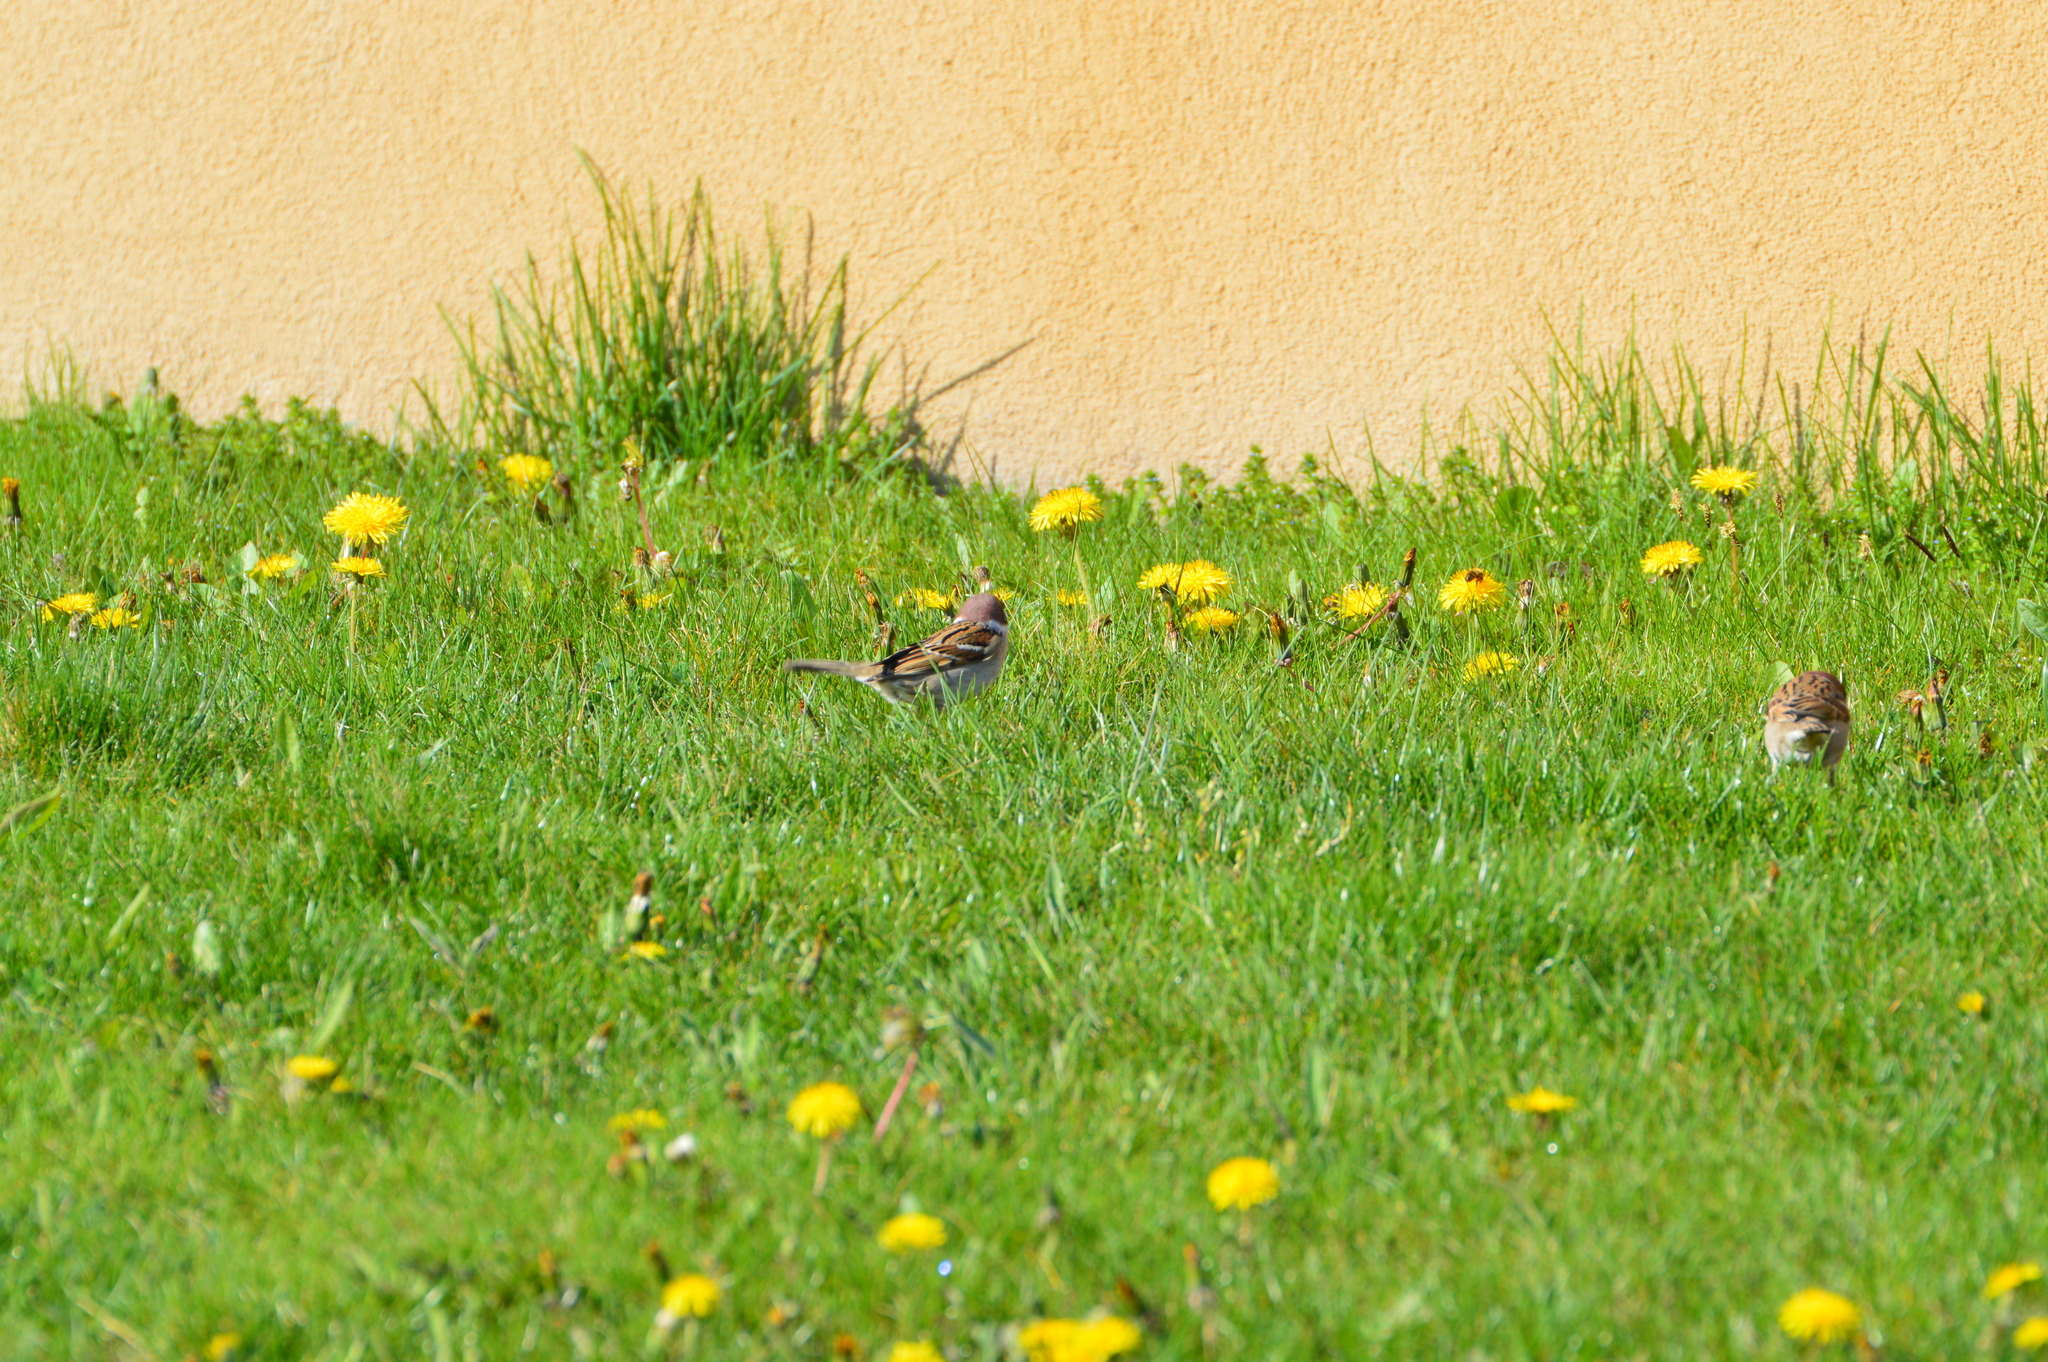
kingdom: Animalia
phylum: Chordata
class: Aves
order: Passeriformes
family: Passeridae
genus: Passer
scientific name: Passer montanus
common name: Eurasian tree sparrow
